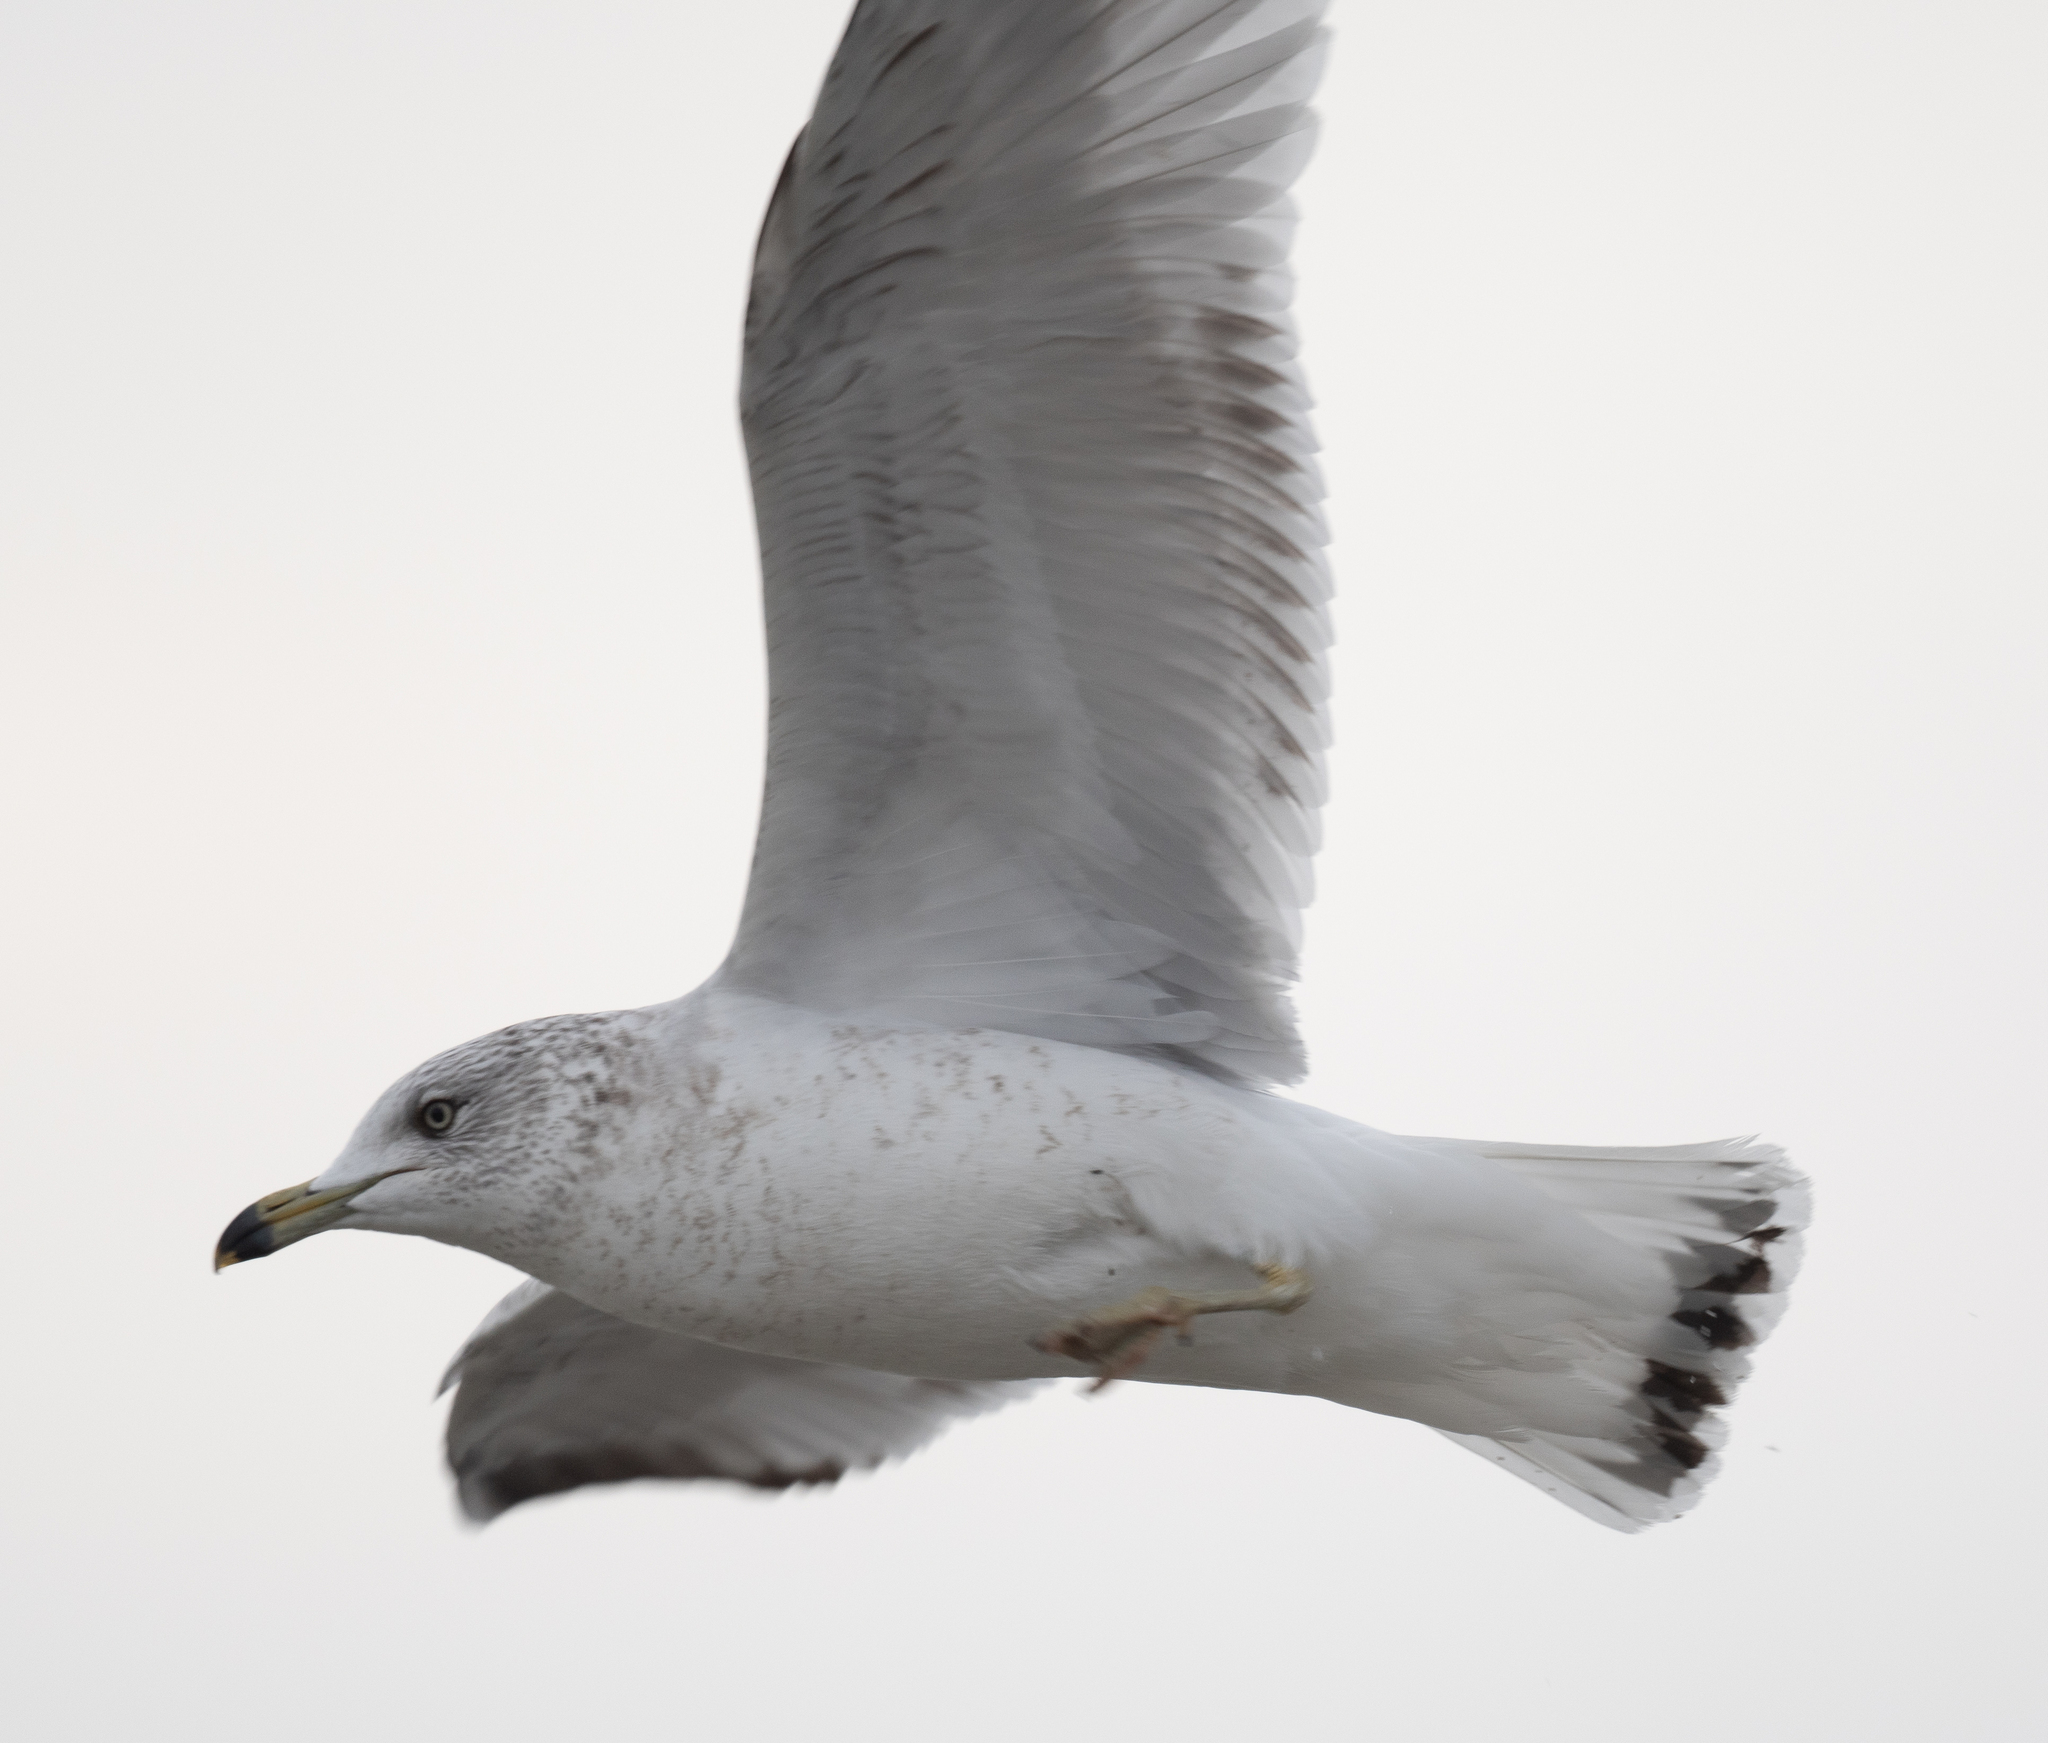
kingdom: Animalia
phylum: Chordata
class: Aves
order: Charadriiformes
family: Laridae
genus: Larus
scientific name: Larus delawarensis
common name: Ring-billed gull
